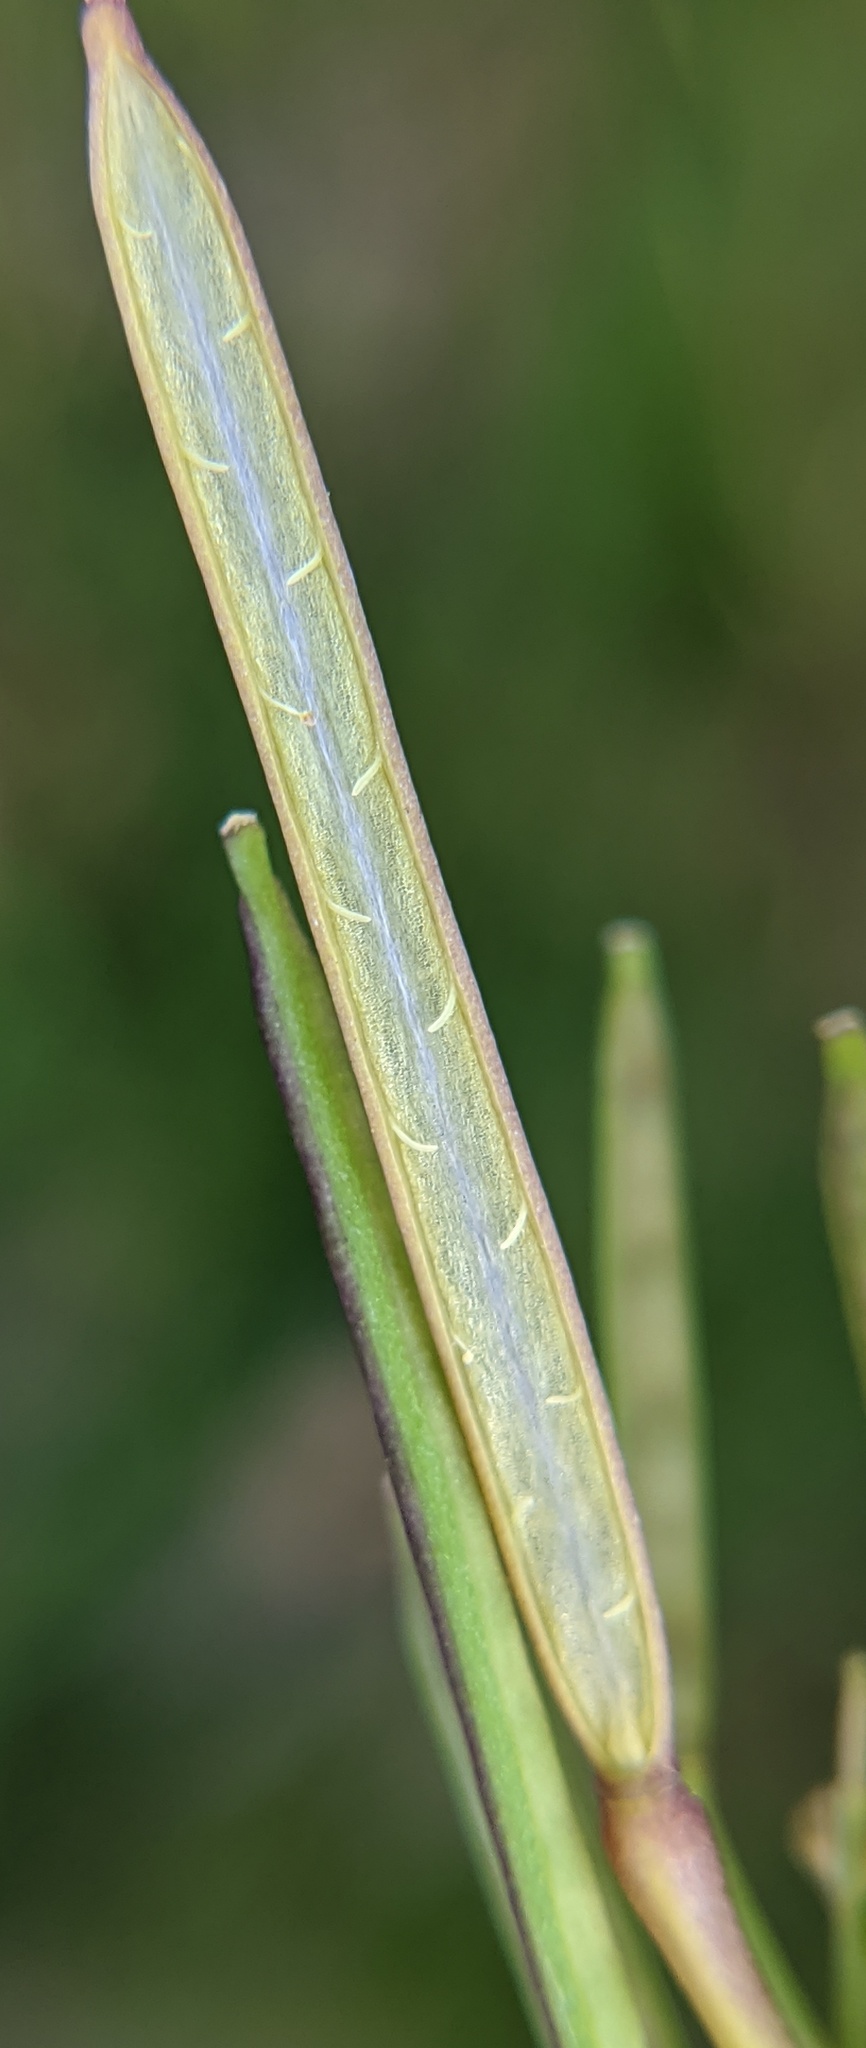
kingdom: Plantae
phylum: Tracheophyta
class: Magnoliopsida
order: Brassicales
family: Brassicaceae
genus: Cardamine
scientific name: Cardamine hirsuta
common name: Hairy bittercress
